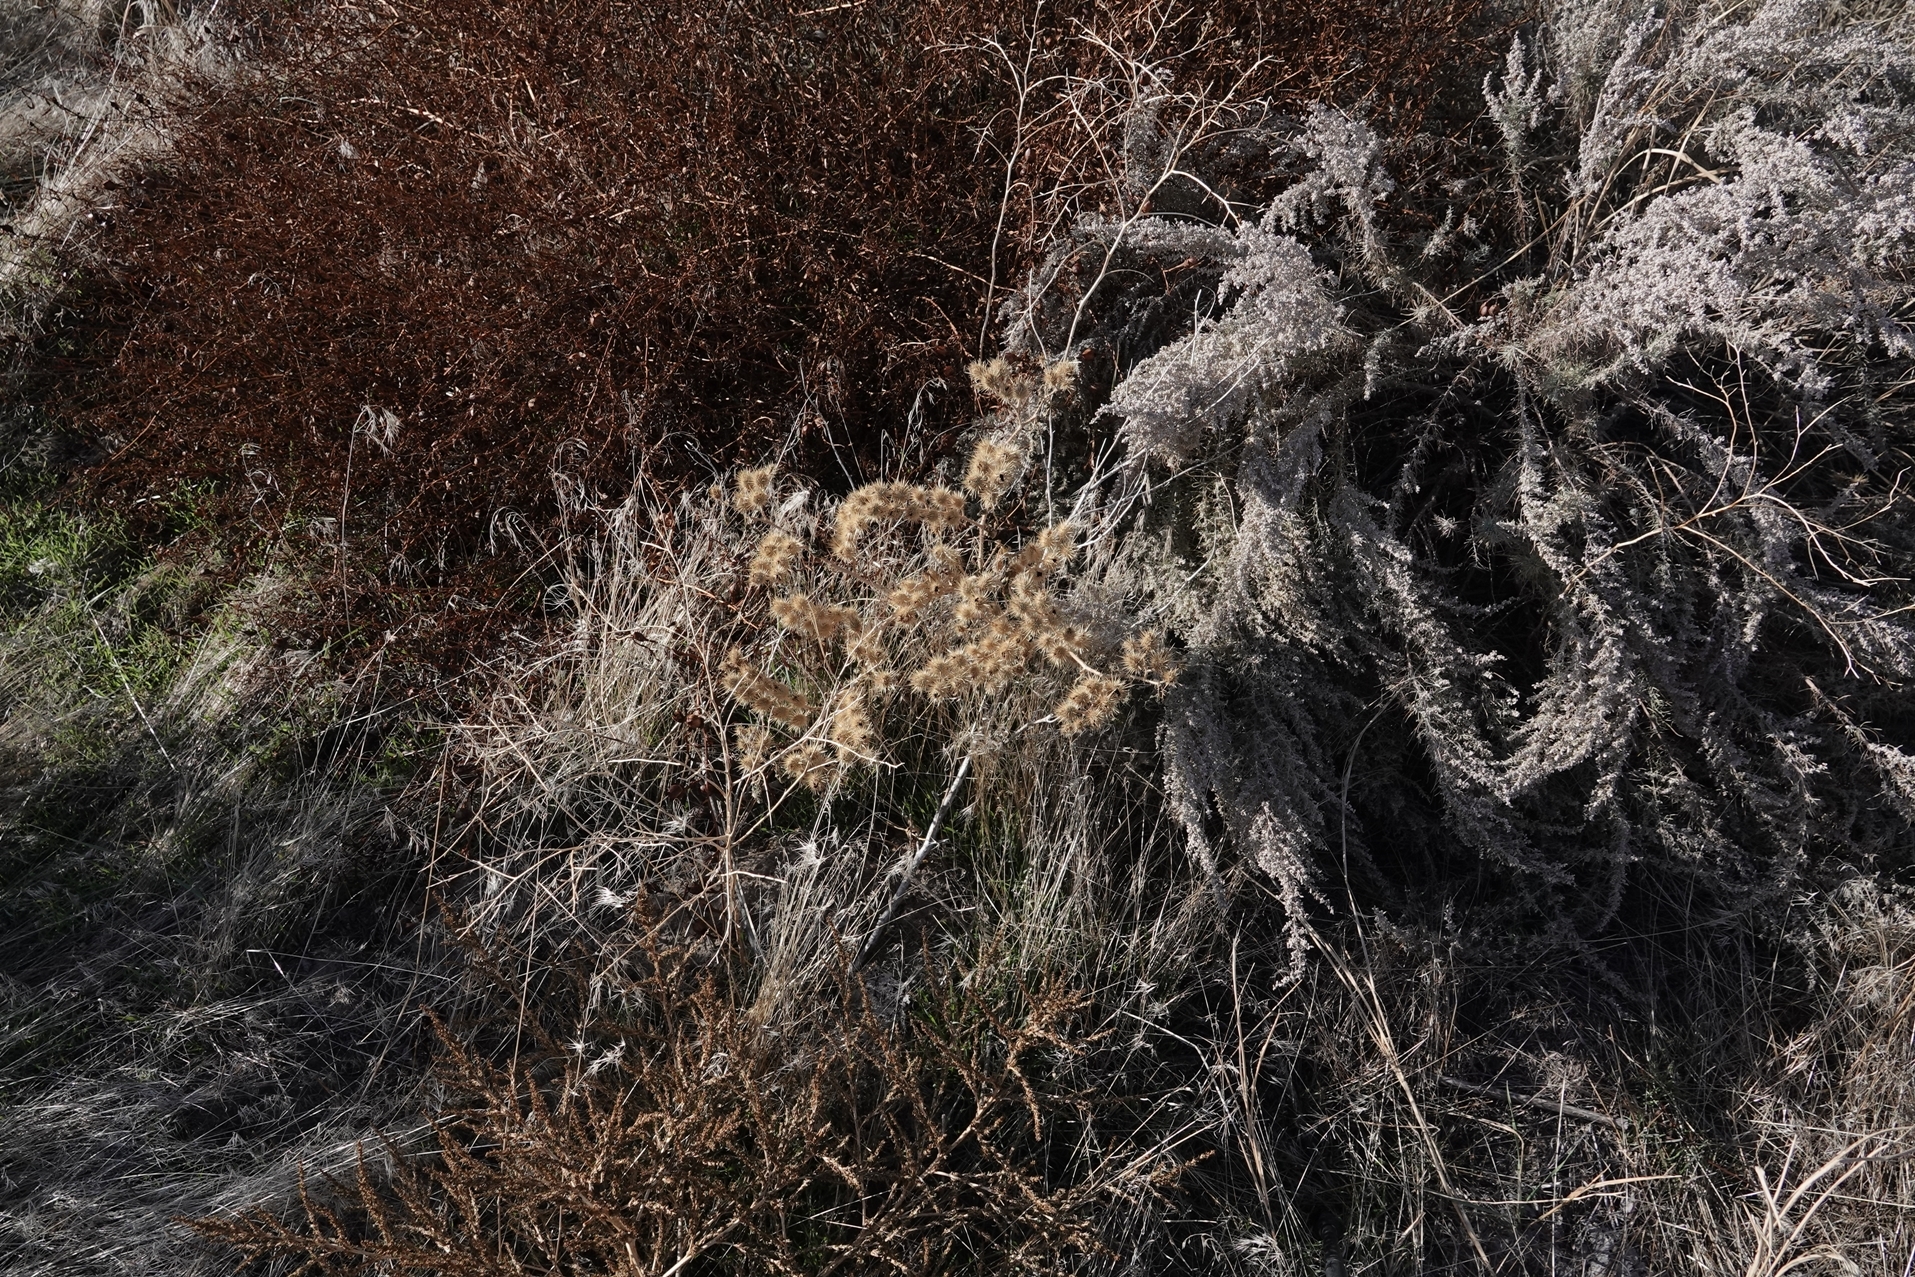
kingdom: Plantae
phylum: Tracheophyta
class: Magnoliopsida
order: Solanales
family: Solanaceae
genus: Solanum
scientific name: Solanum angustifolium
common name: Buffalobur nightshade
